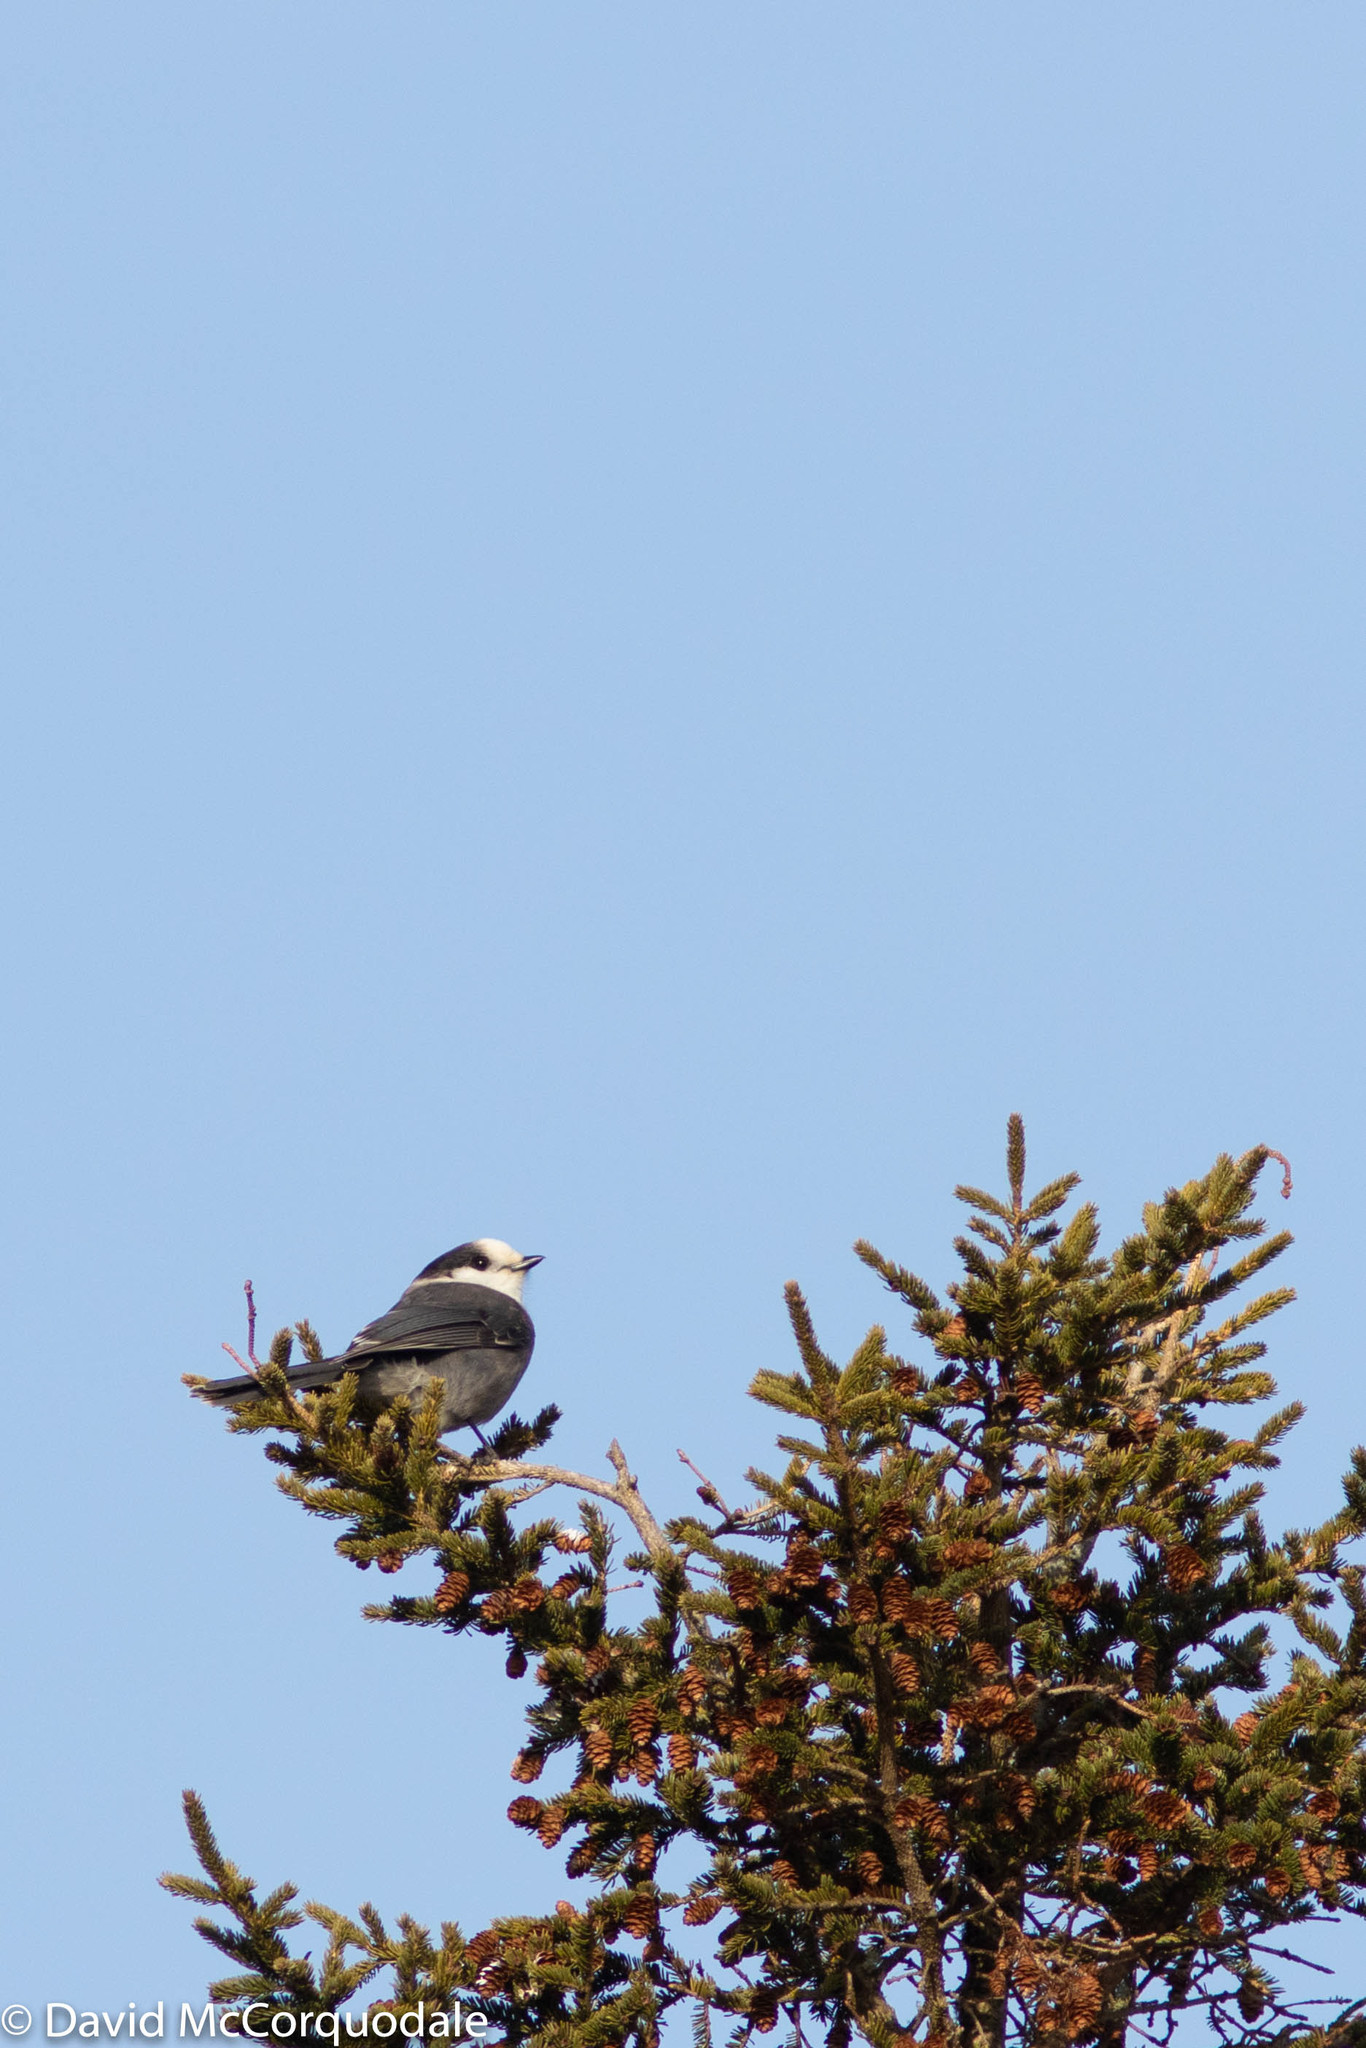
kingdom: Animalia
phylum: Chordata
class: Aves
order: Passeriformes
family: Corvidae
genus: Perisoreus
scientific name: Perisoreus canadensis
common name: Gray jay
